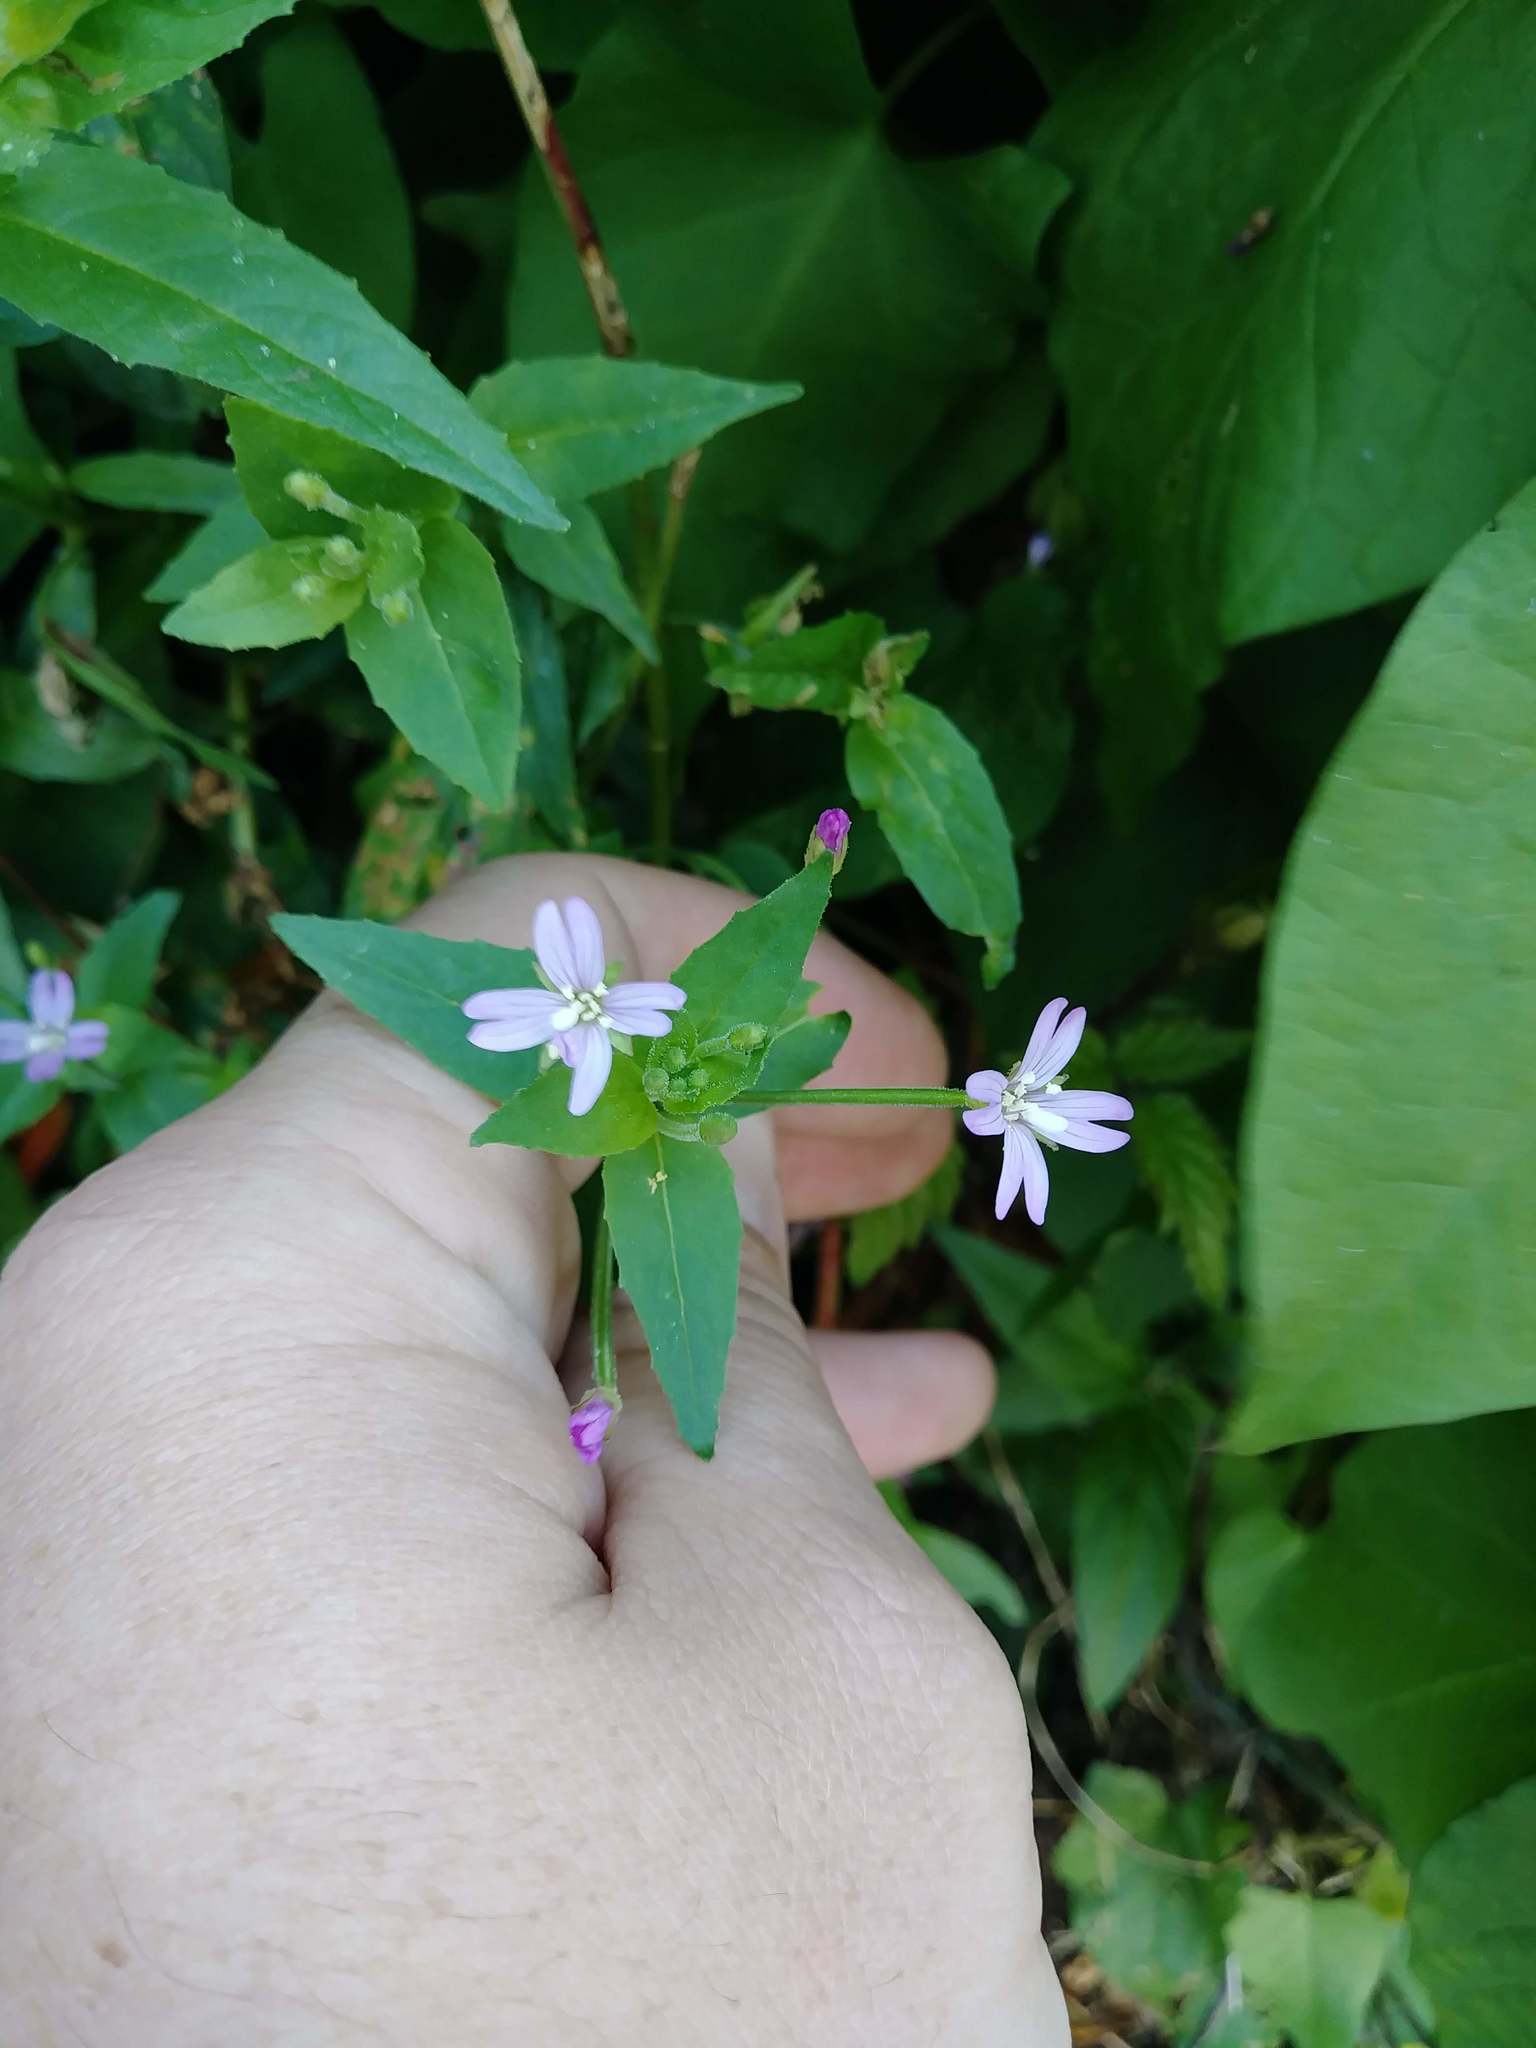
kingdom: Plantae
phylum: Tracheophyta
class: Magnoliopsida
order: Myrtales
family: Onagraceae
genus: Epilobium
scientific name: Epilobium ciliatum
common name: American willowherb
